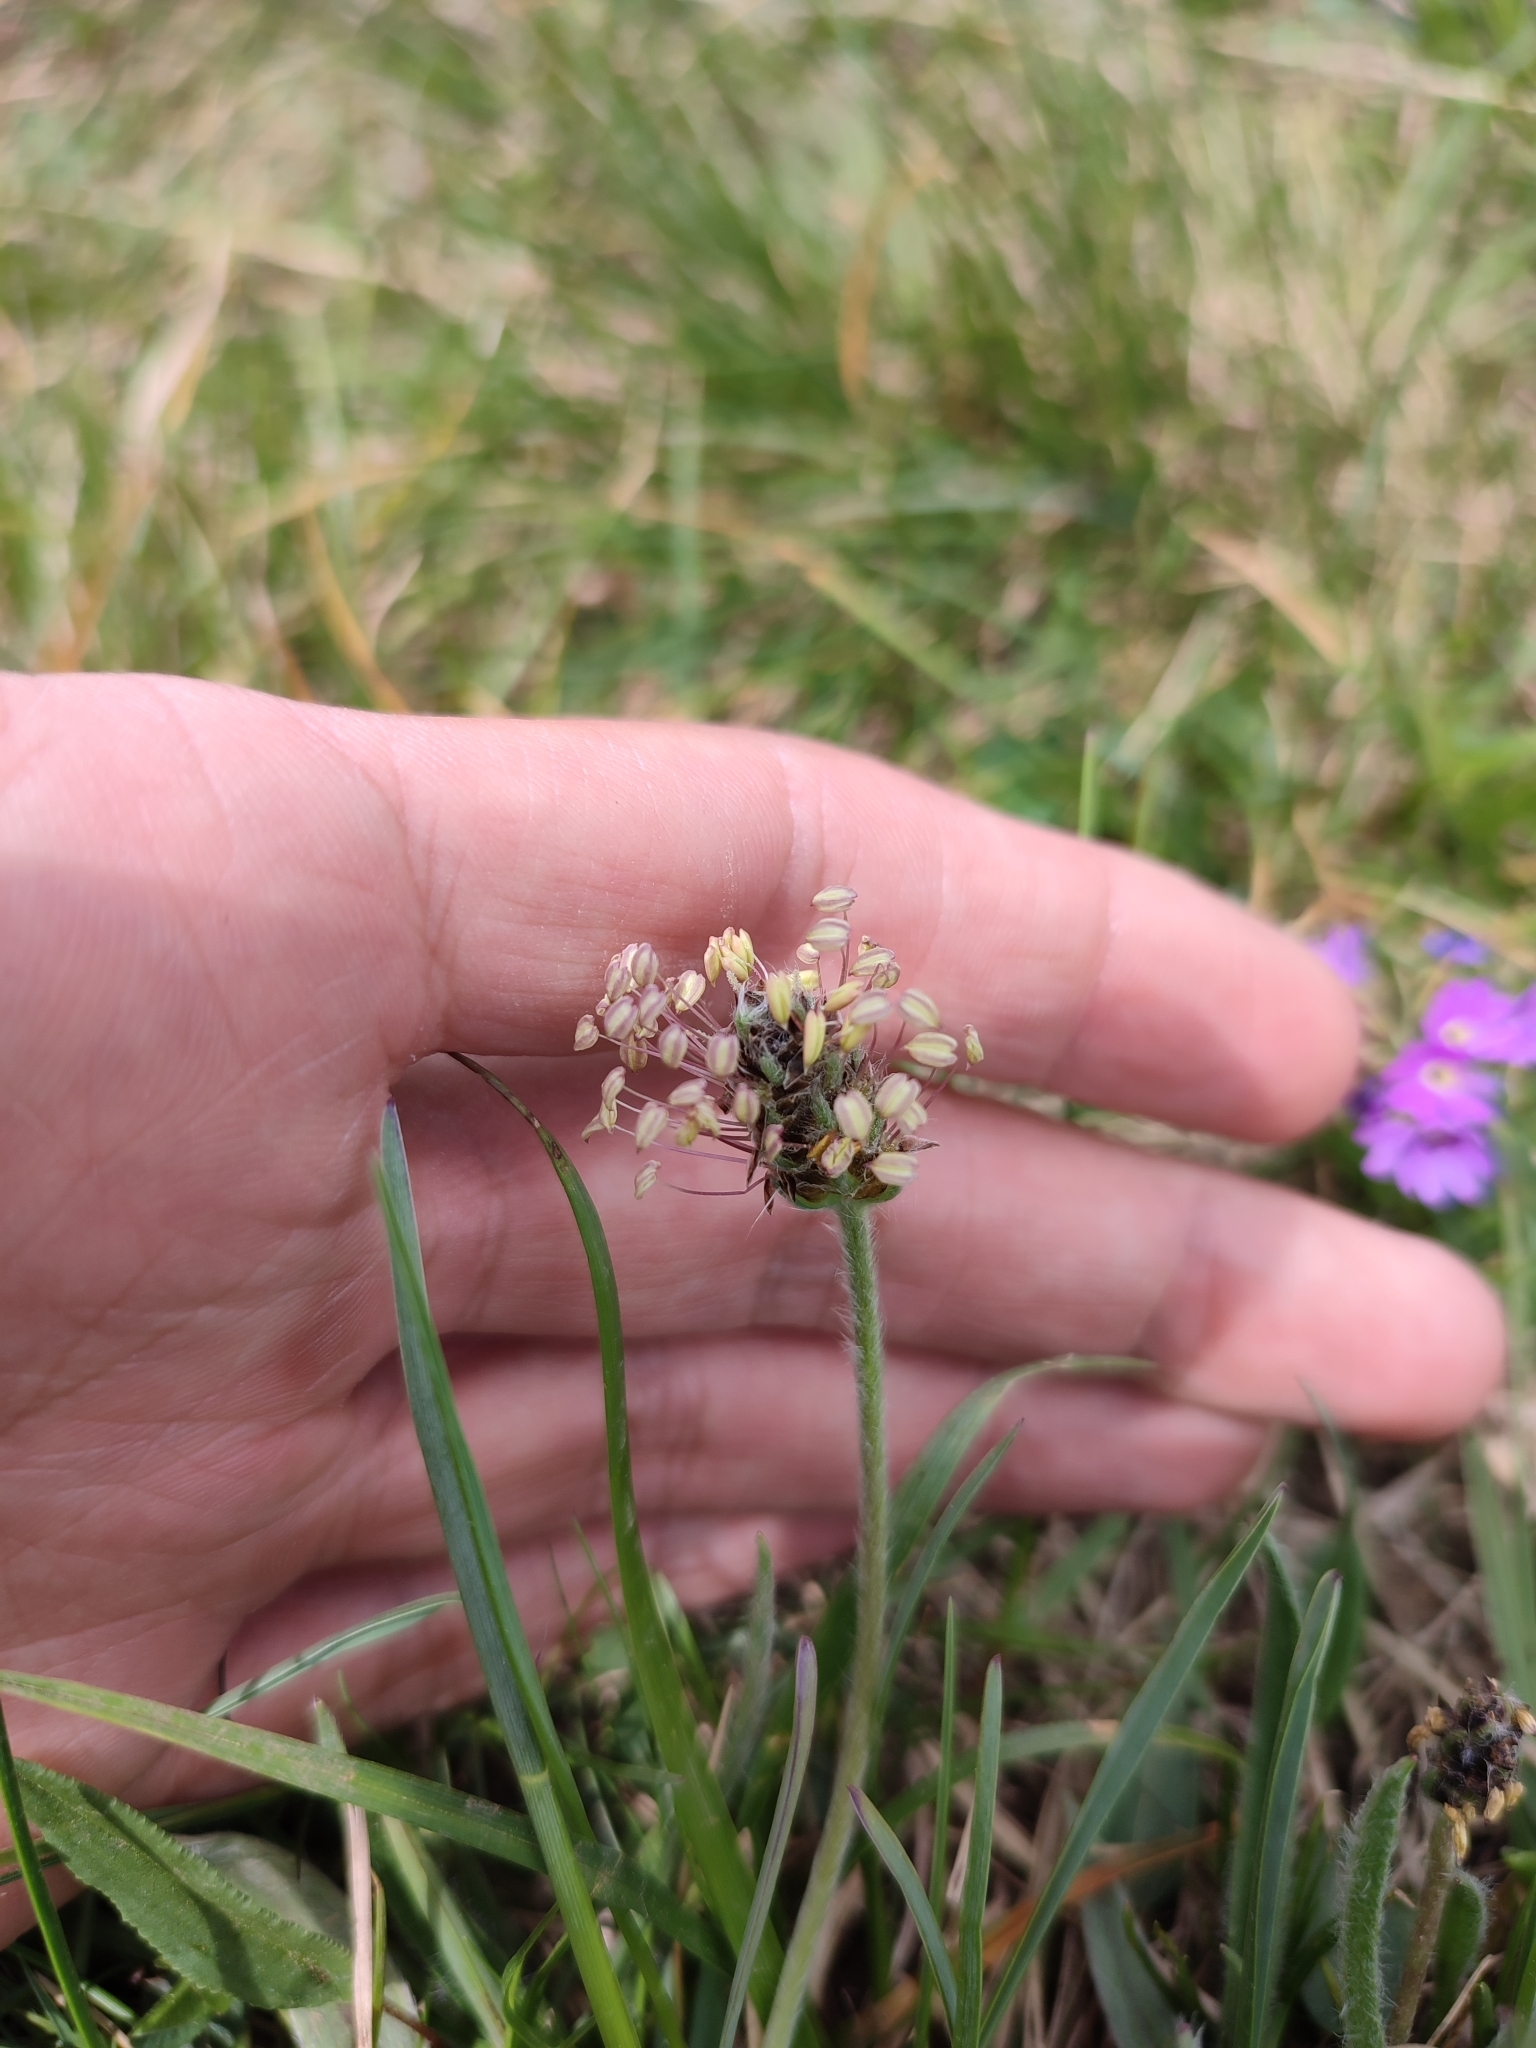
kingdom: Plantae
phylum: Tracheophyta
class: Magnoliopsida
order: Lamiales
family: Plantaginaceae
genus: Plantago
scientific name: Plantago atrata
